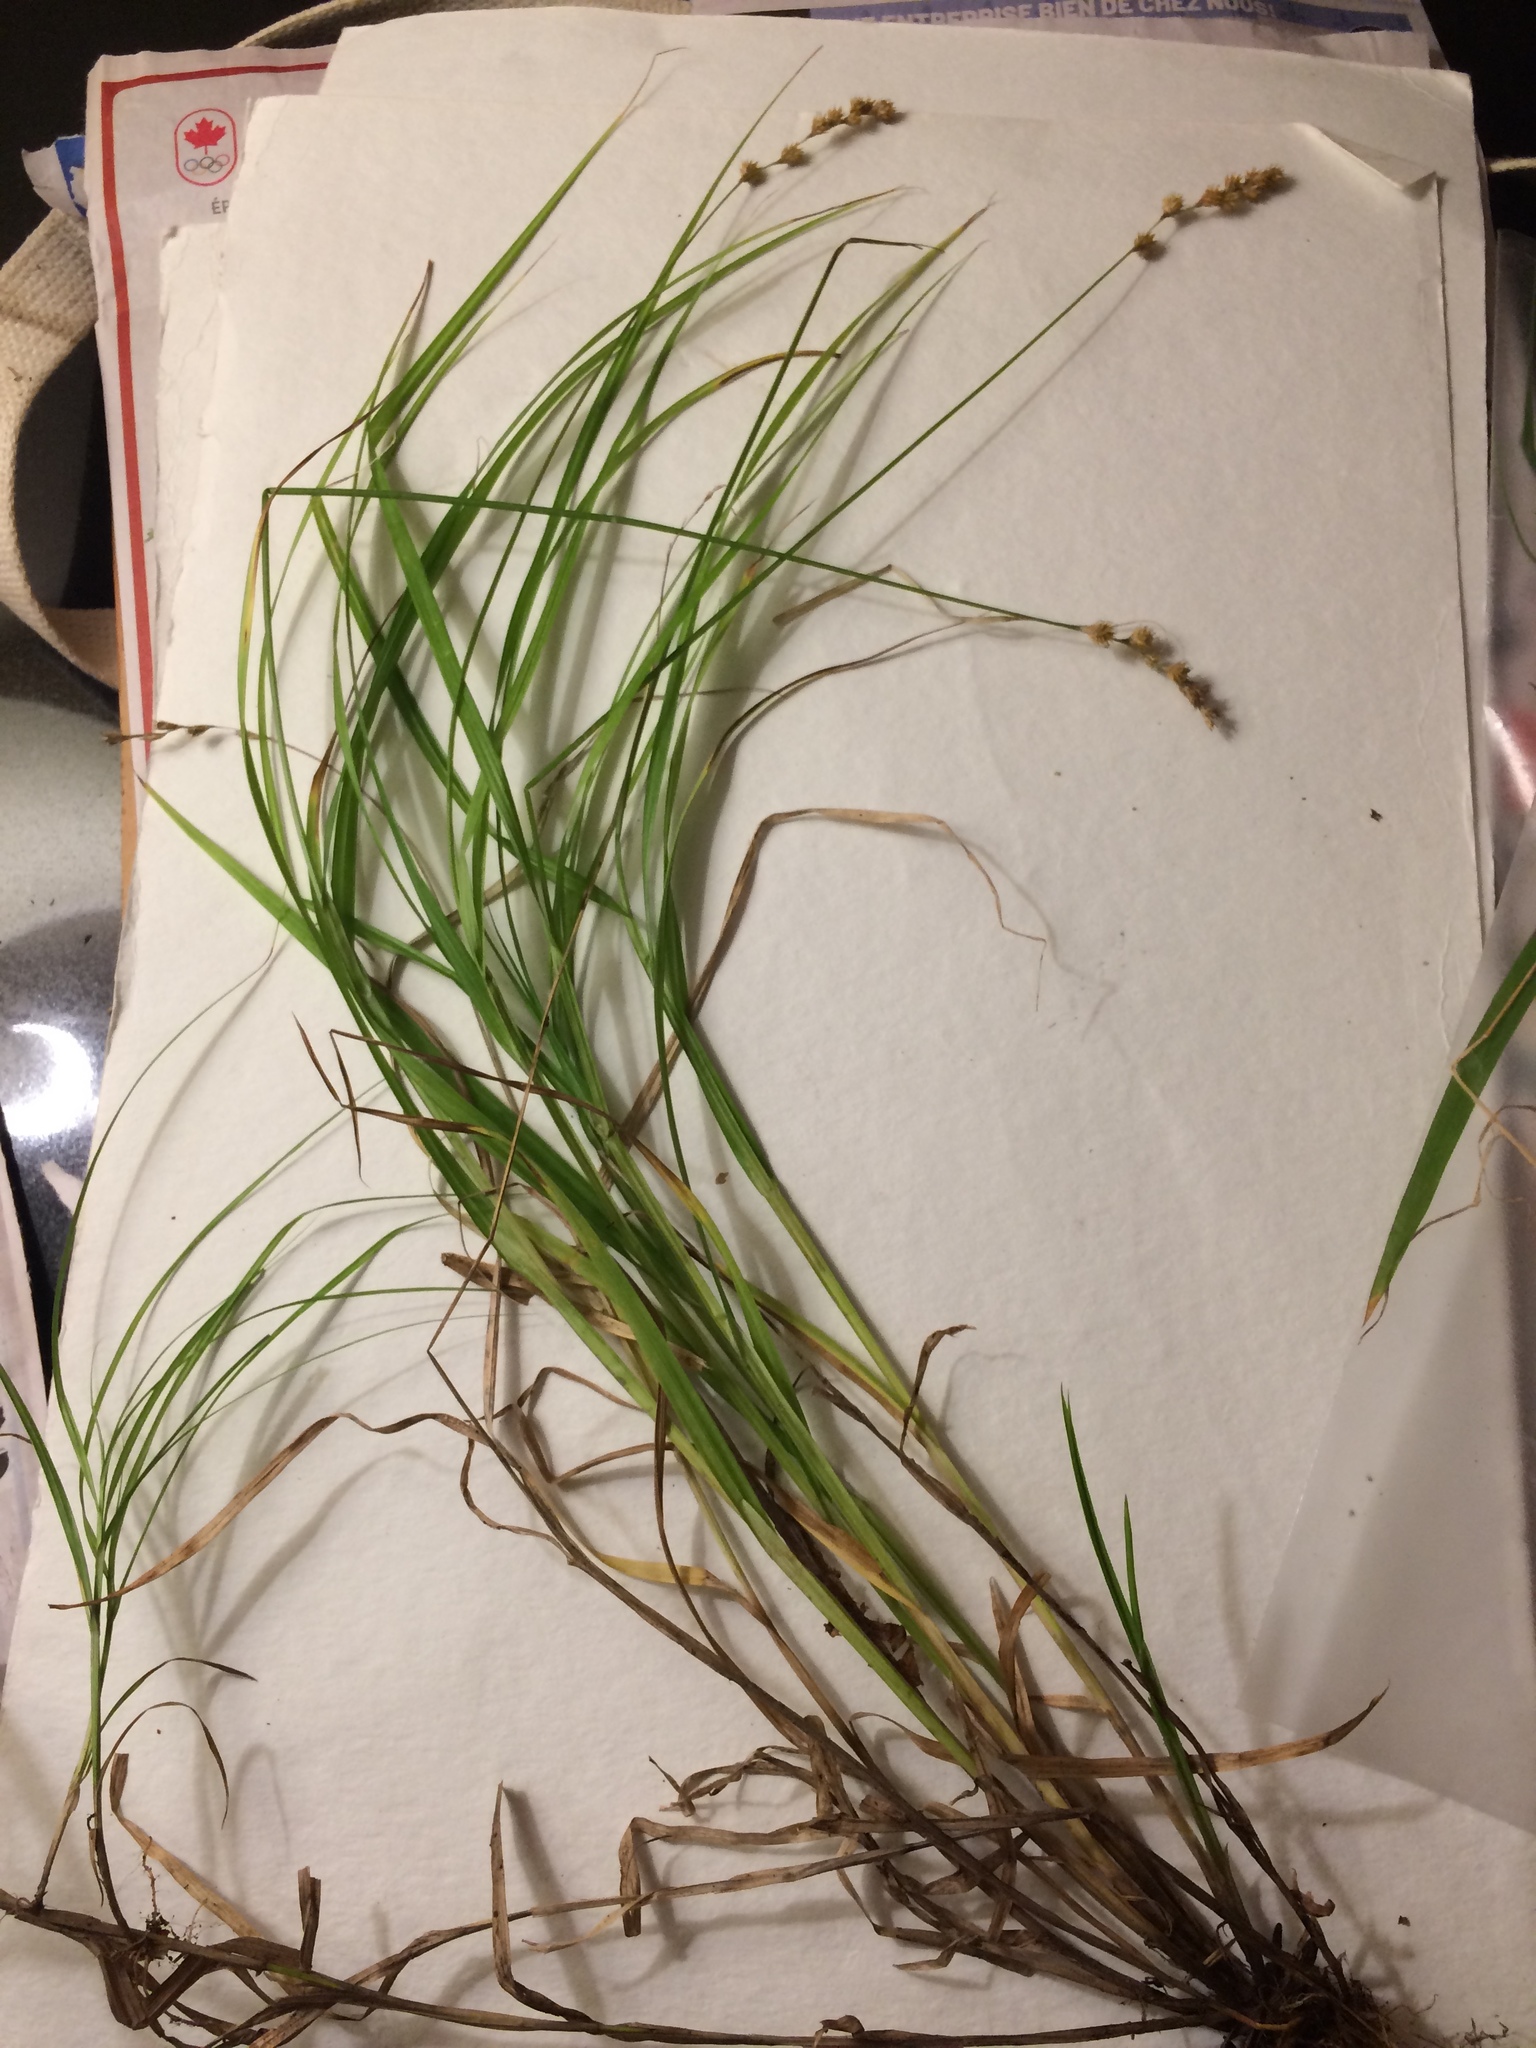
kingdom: Plantae
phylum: Tracheophyta
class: Liliopsida
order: Poales
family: Cyperaceae
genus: Carex
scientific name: Carex projecta
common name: Loose-headed oval sedge
